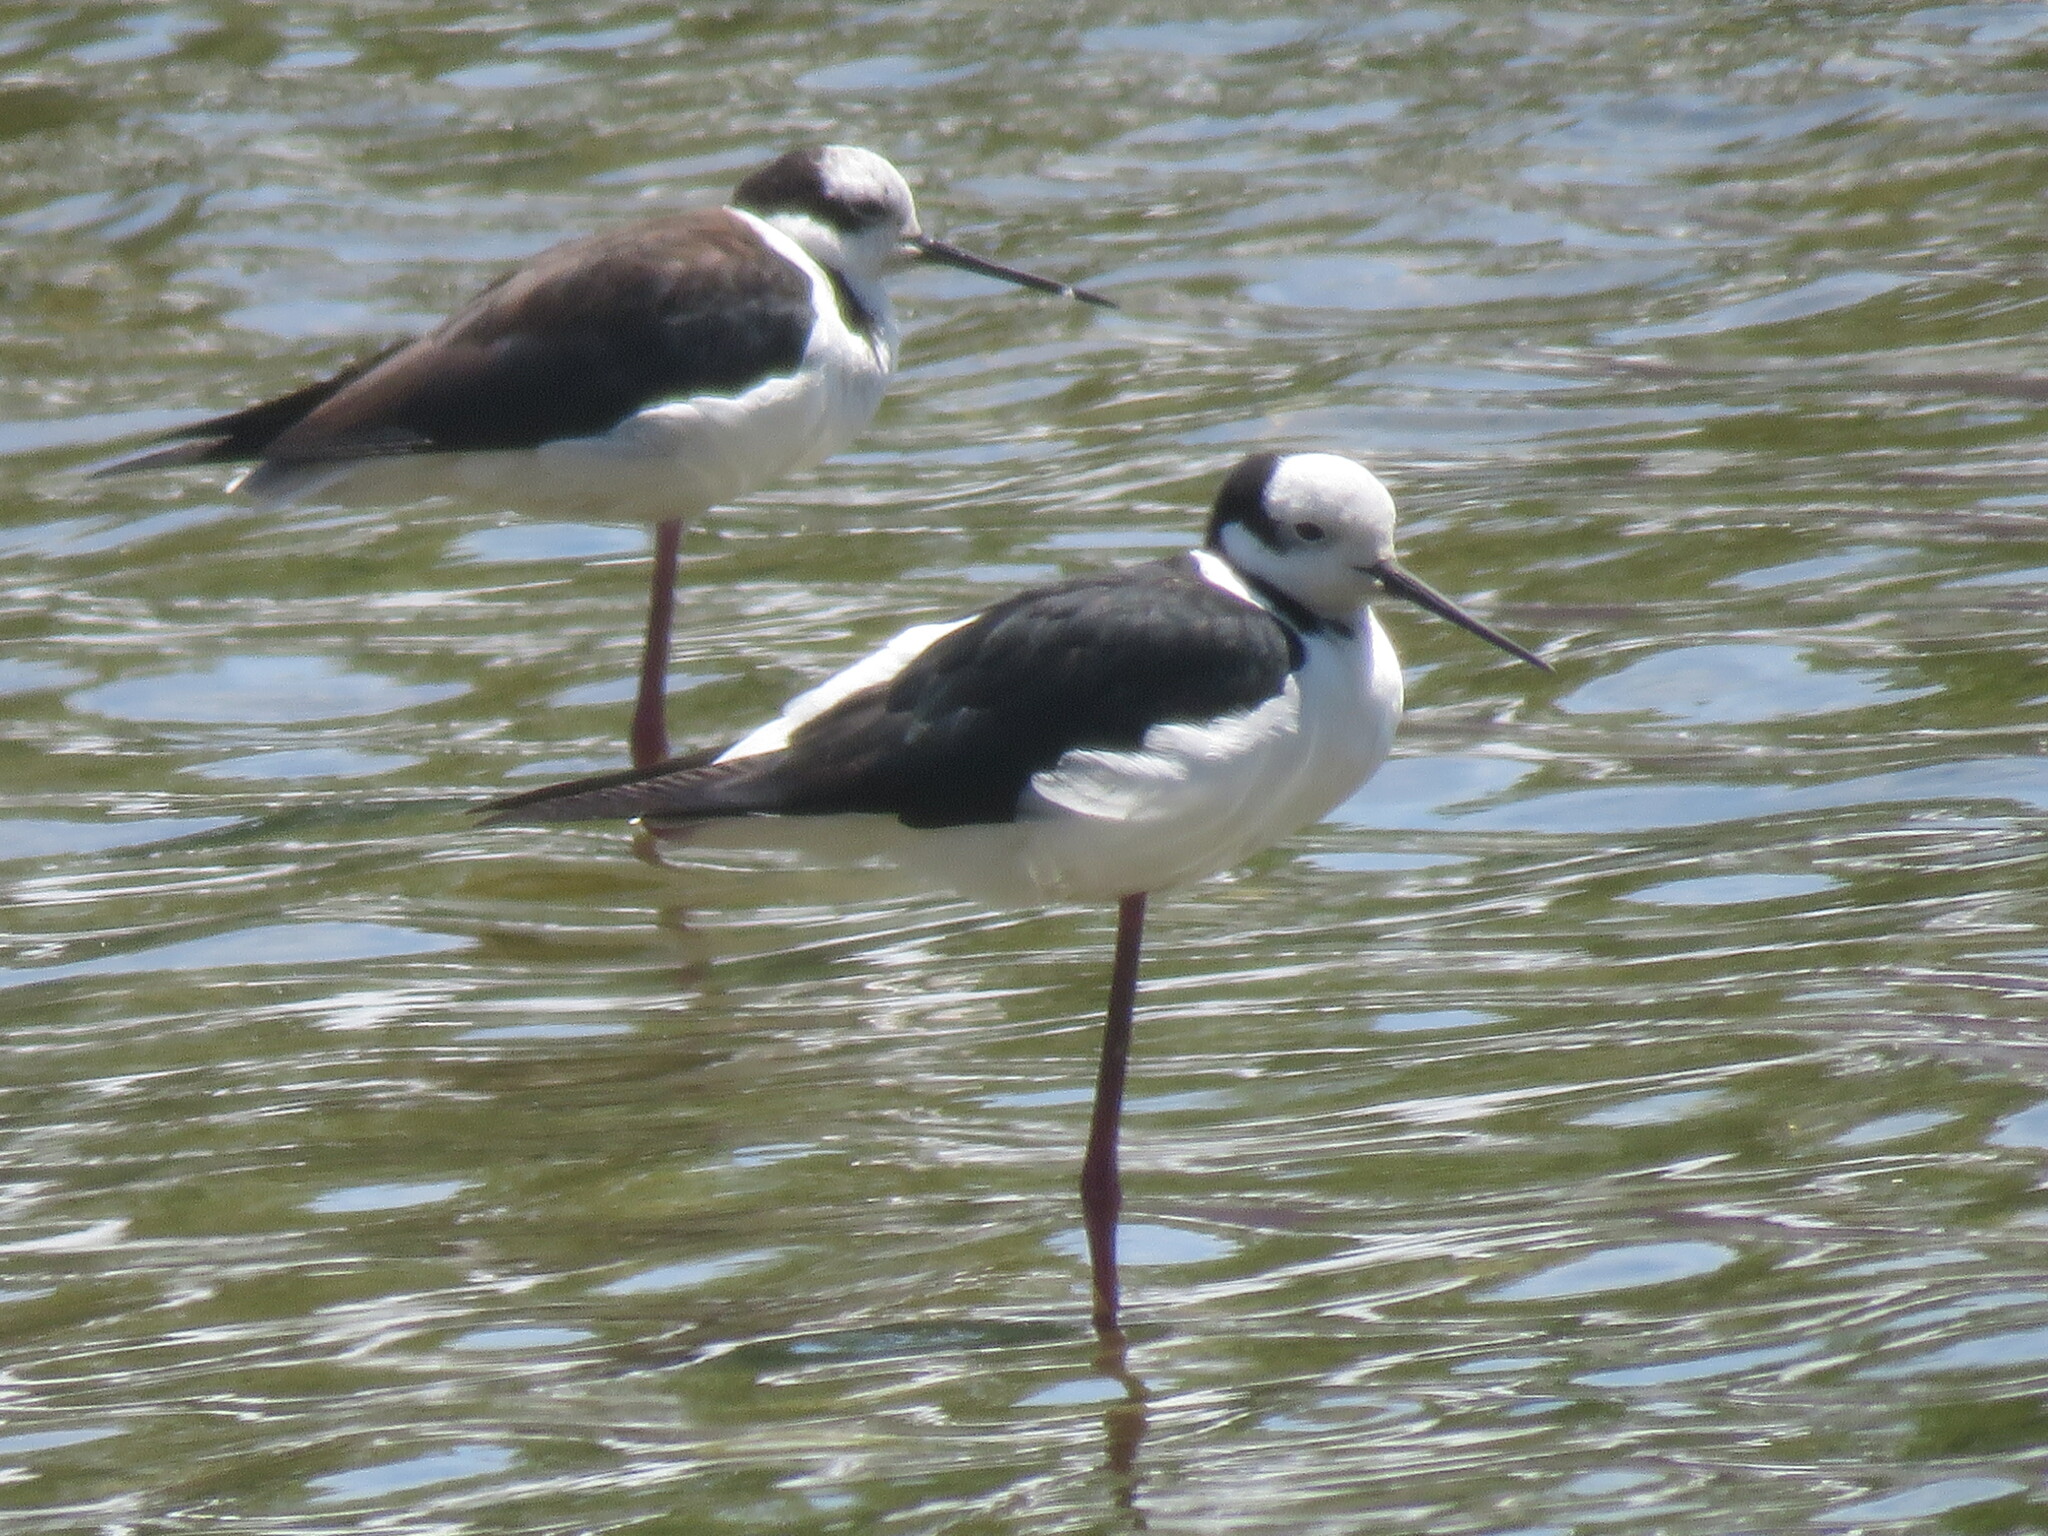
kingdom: Animalia
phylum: Chordata
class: Aves
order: Charadriiformes
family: Recurvirostridae
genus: Himantopus
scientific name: Himantopus mexicanus
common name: Black-necked stilt
